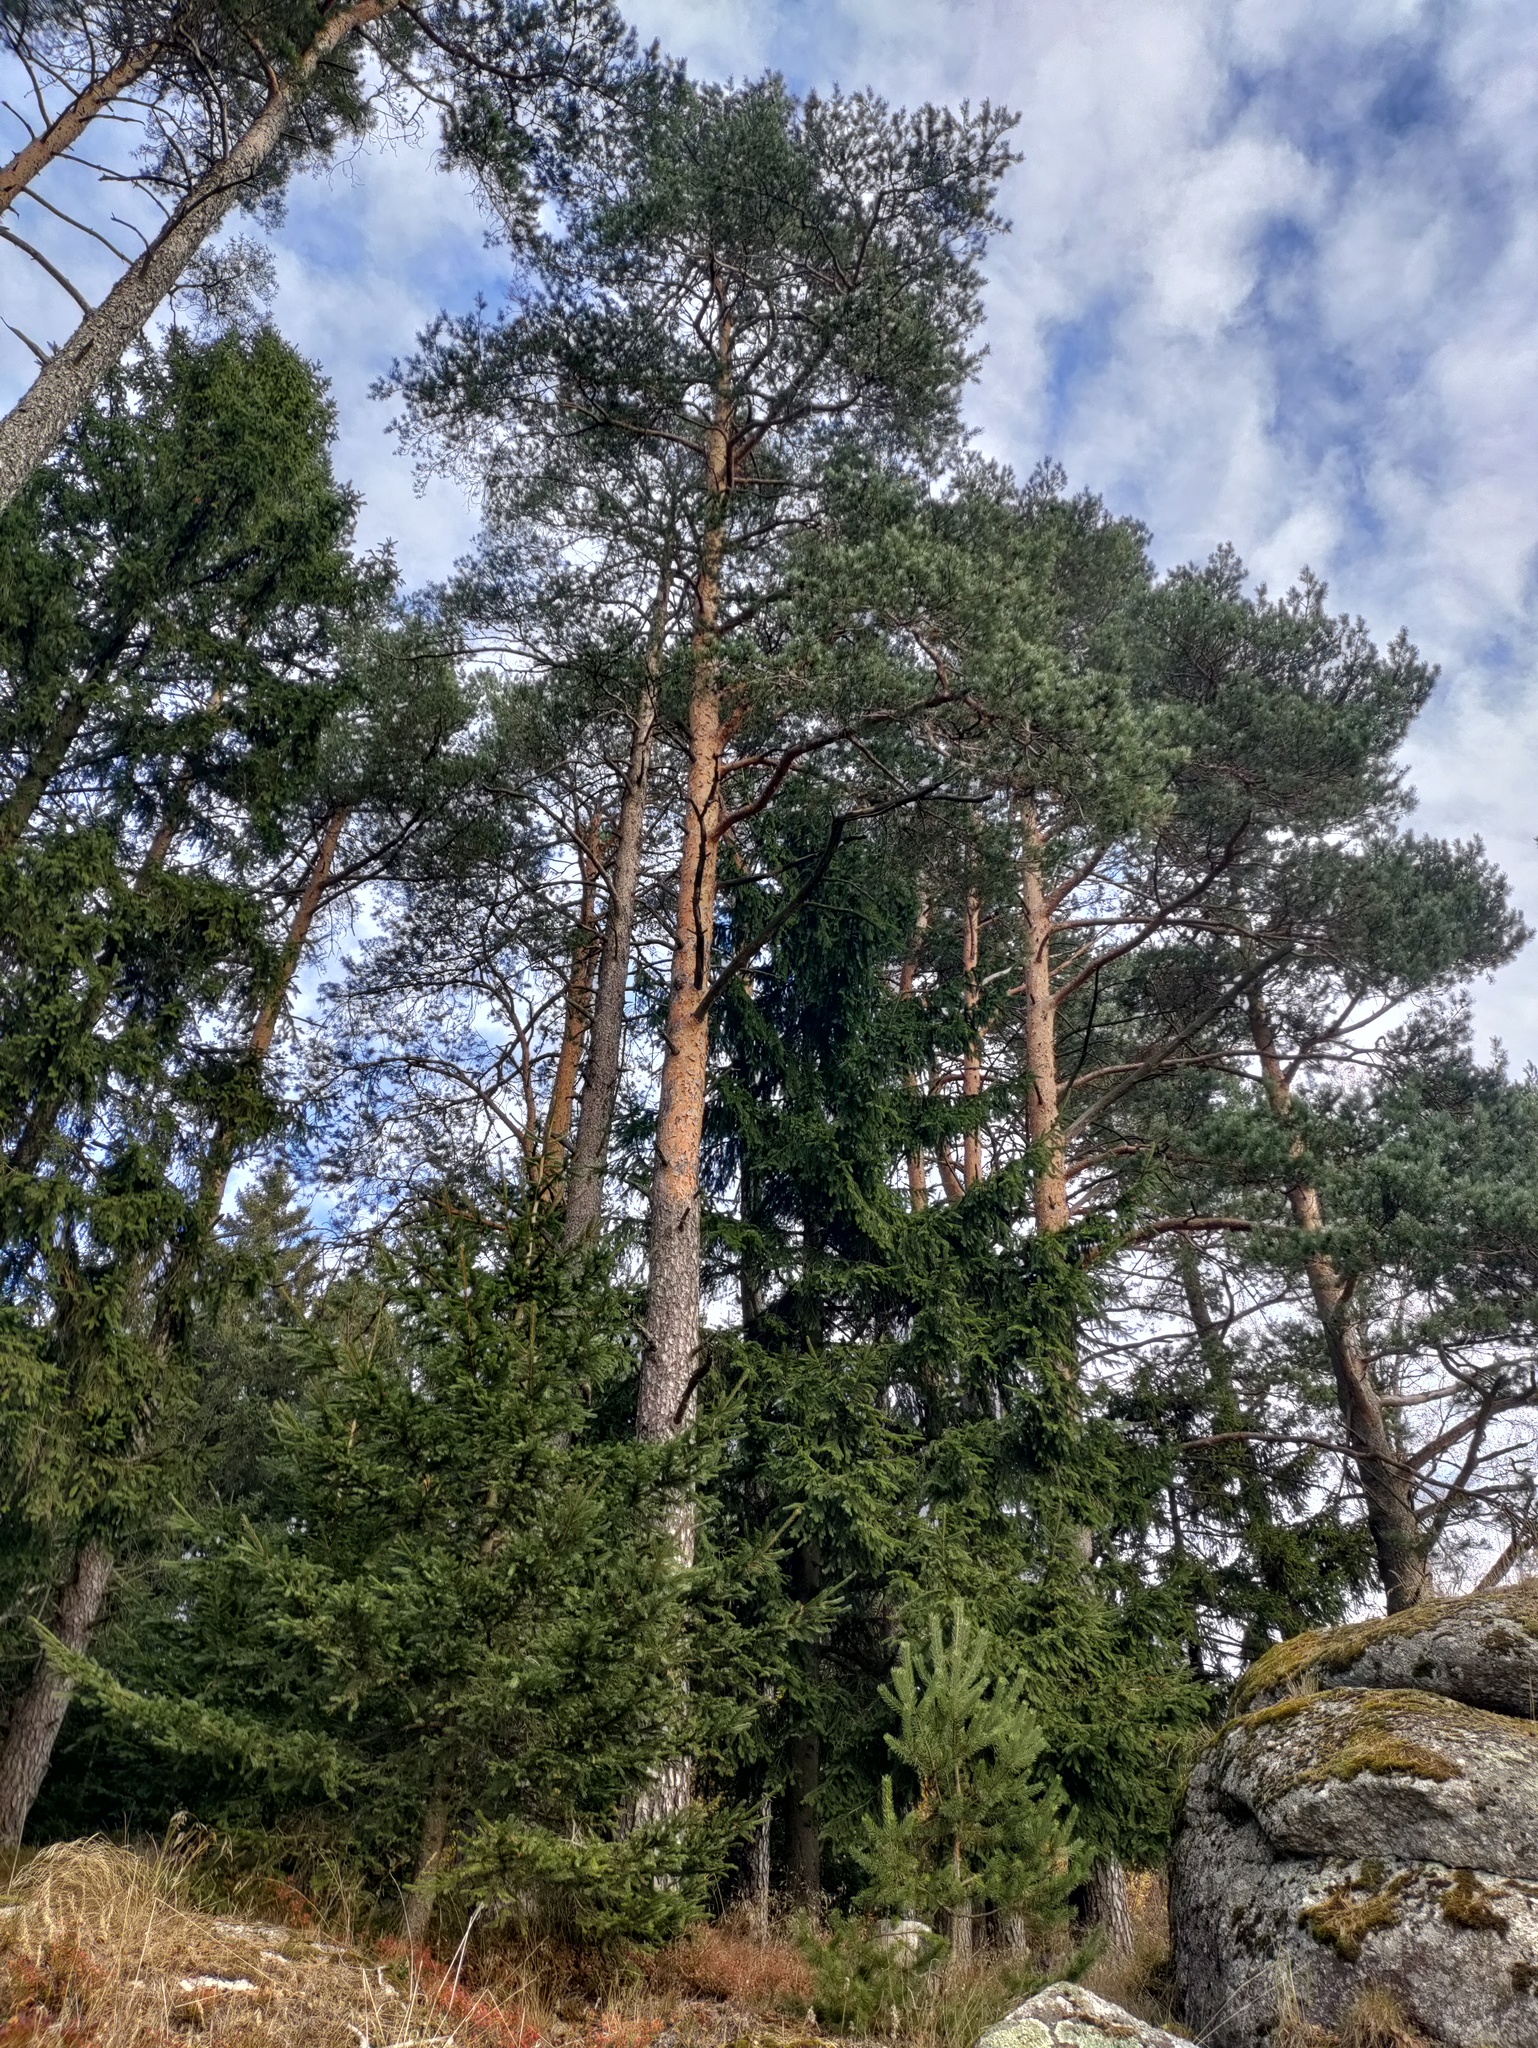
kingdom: Plantae
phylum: Tracheophyta
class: Pinopsida
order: Pinales
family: Pinaceae
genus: Pinus
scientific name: Pinus sylvestris
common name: Scots pine
